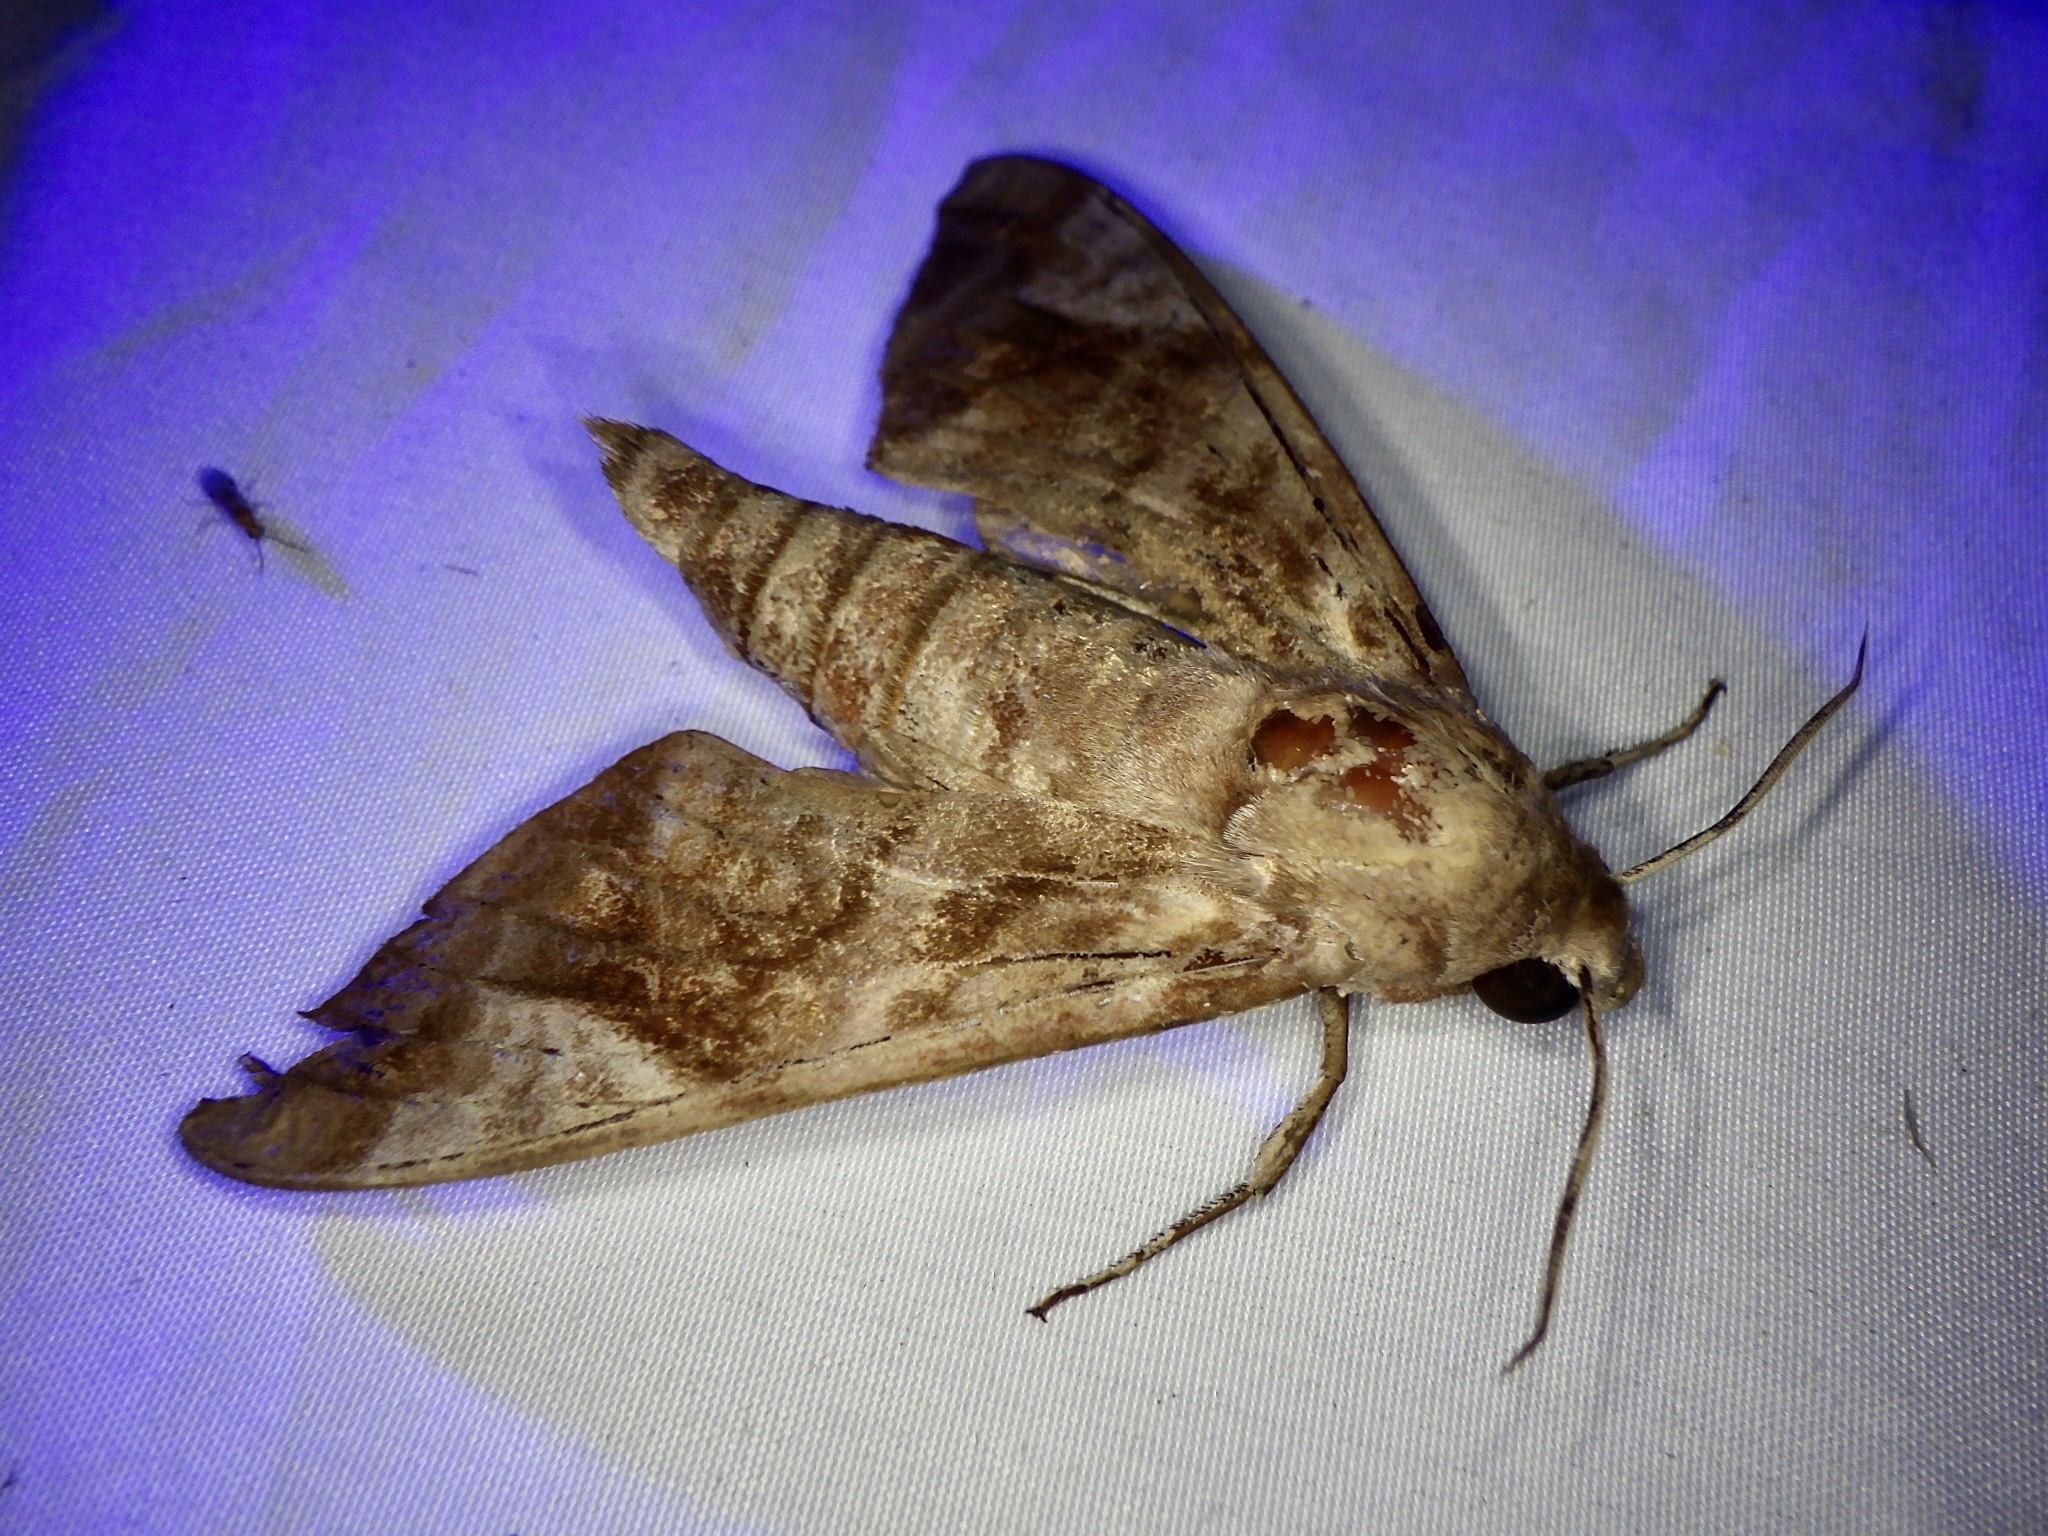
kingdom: Animalia
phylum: Arthropoda
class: Insecta
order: Lepidoptera
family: Sphingidae
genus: Acosmeryx
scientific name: Acosmeryx castanea
